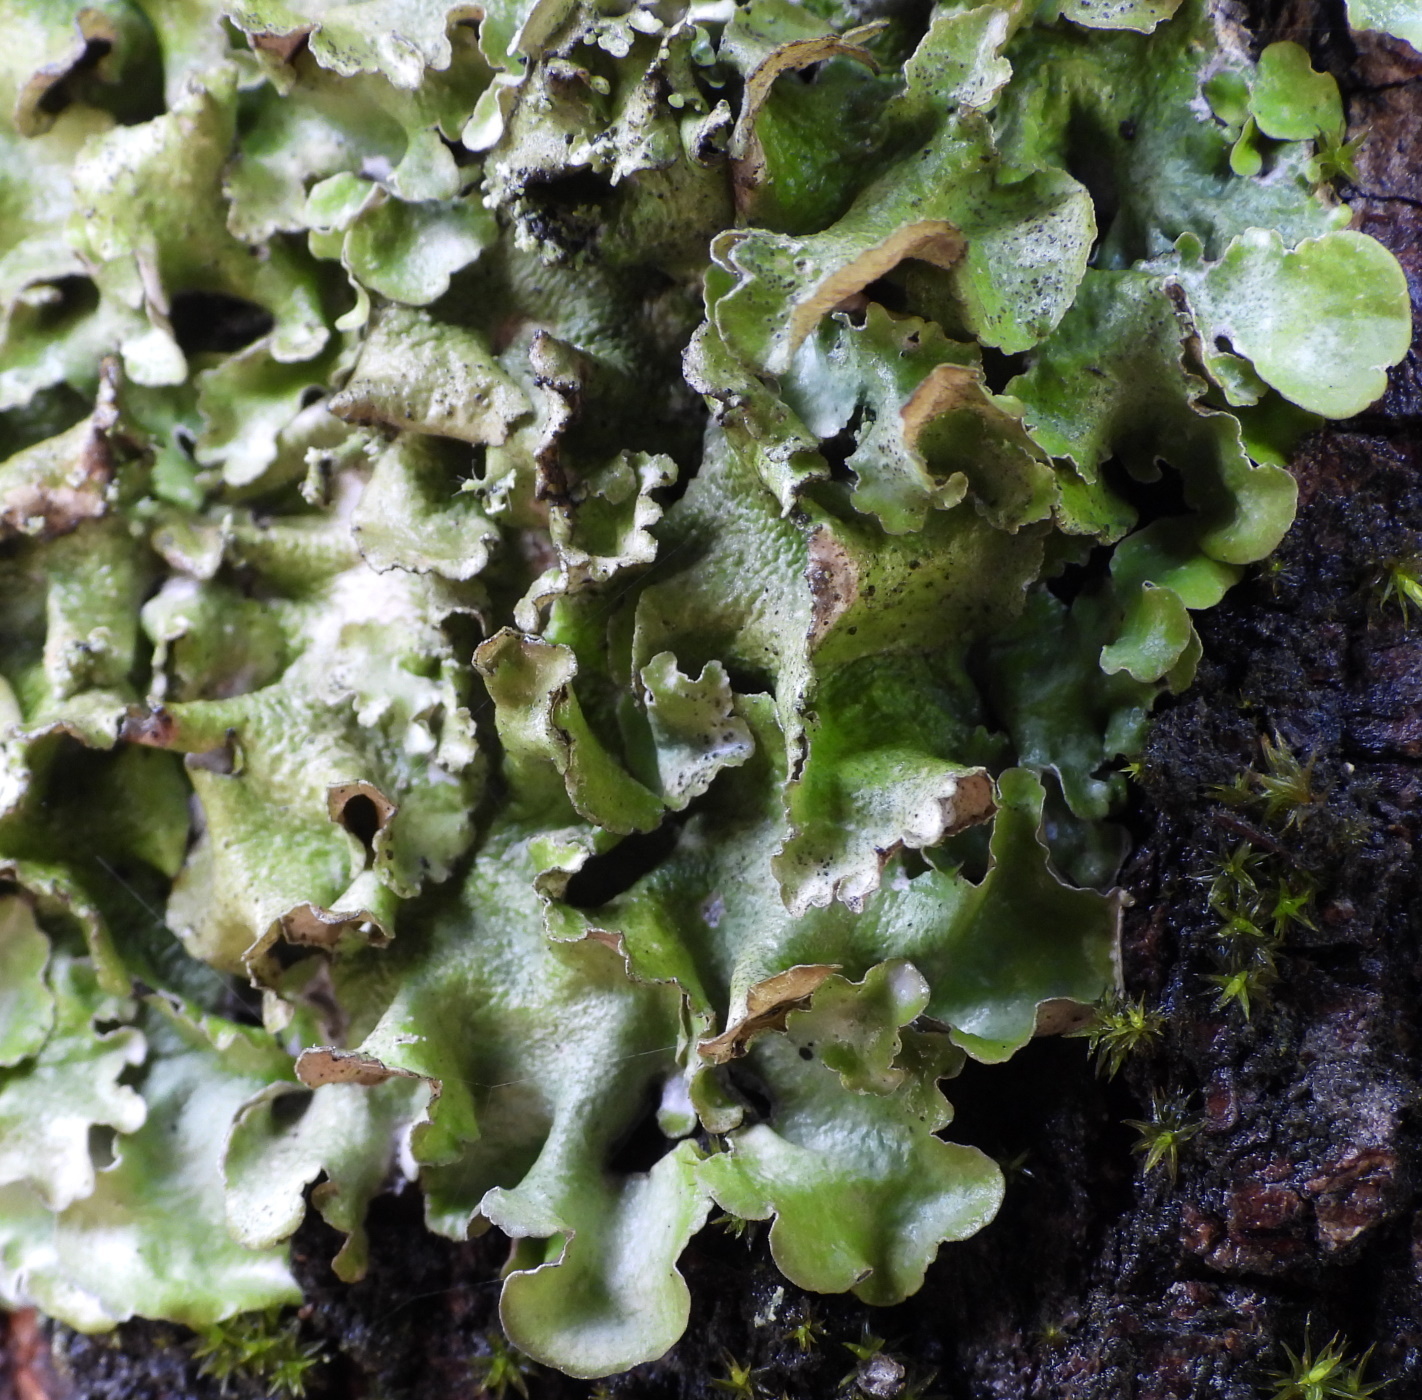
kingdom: Fungi
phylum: Ascomycota
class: Lecanoromycetes
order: Lecanorales
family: Parmeliaceae
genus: Pleurosticta
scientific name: Pleurosticta acetabulum
